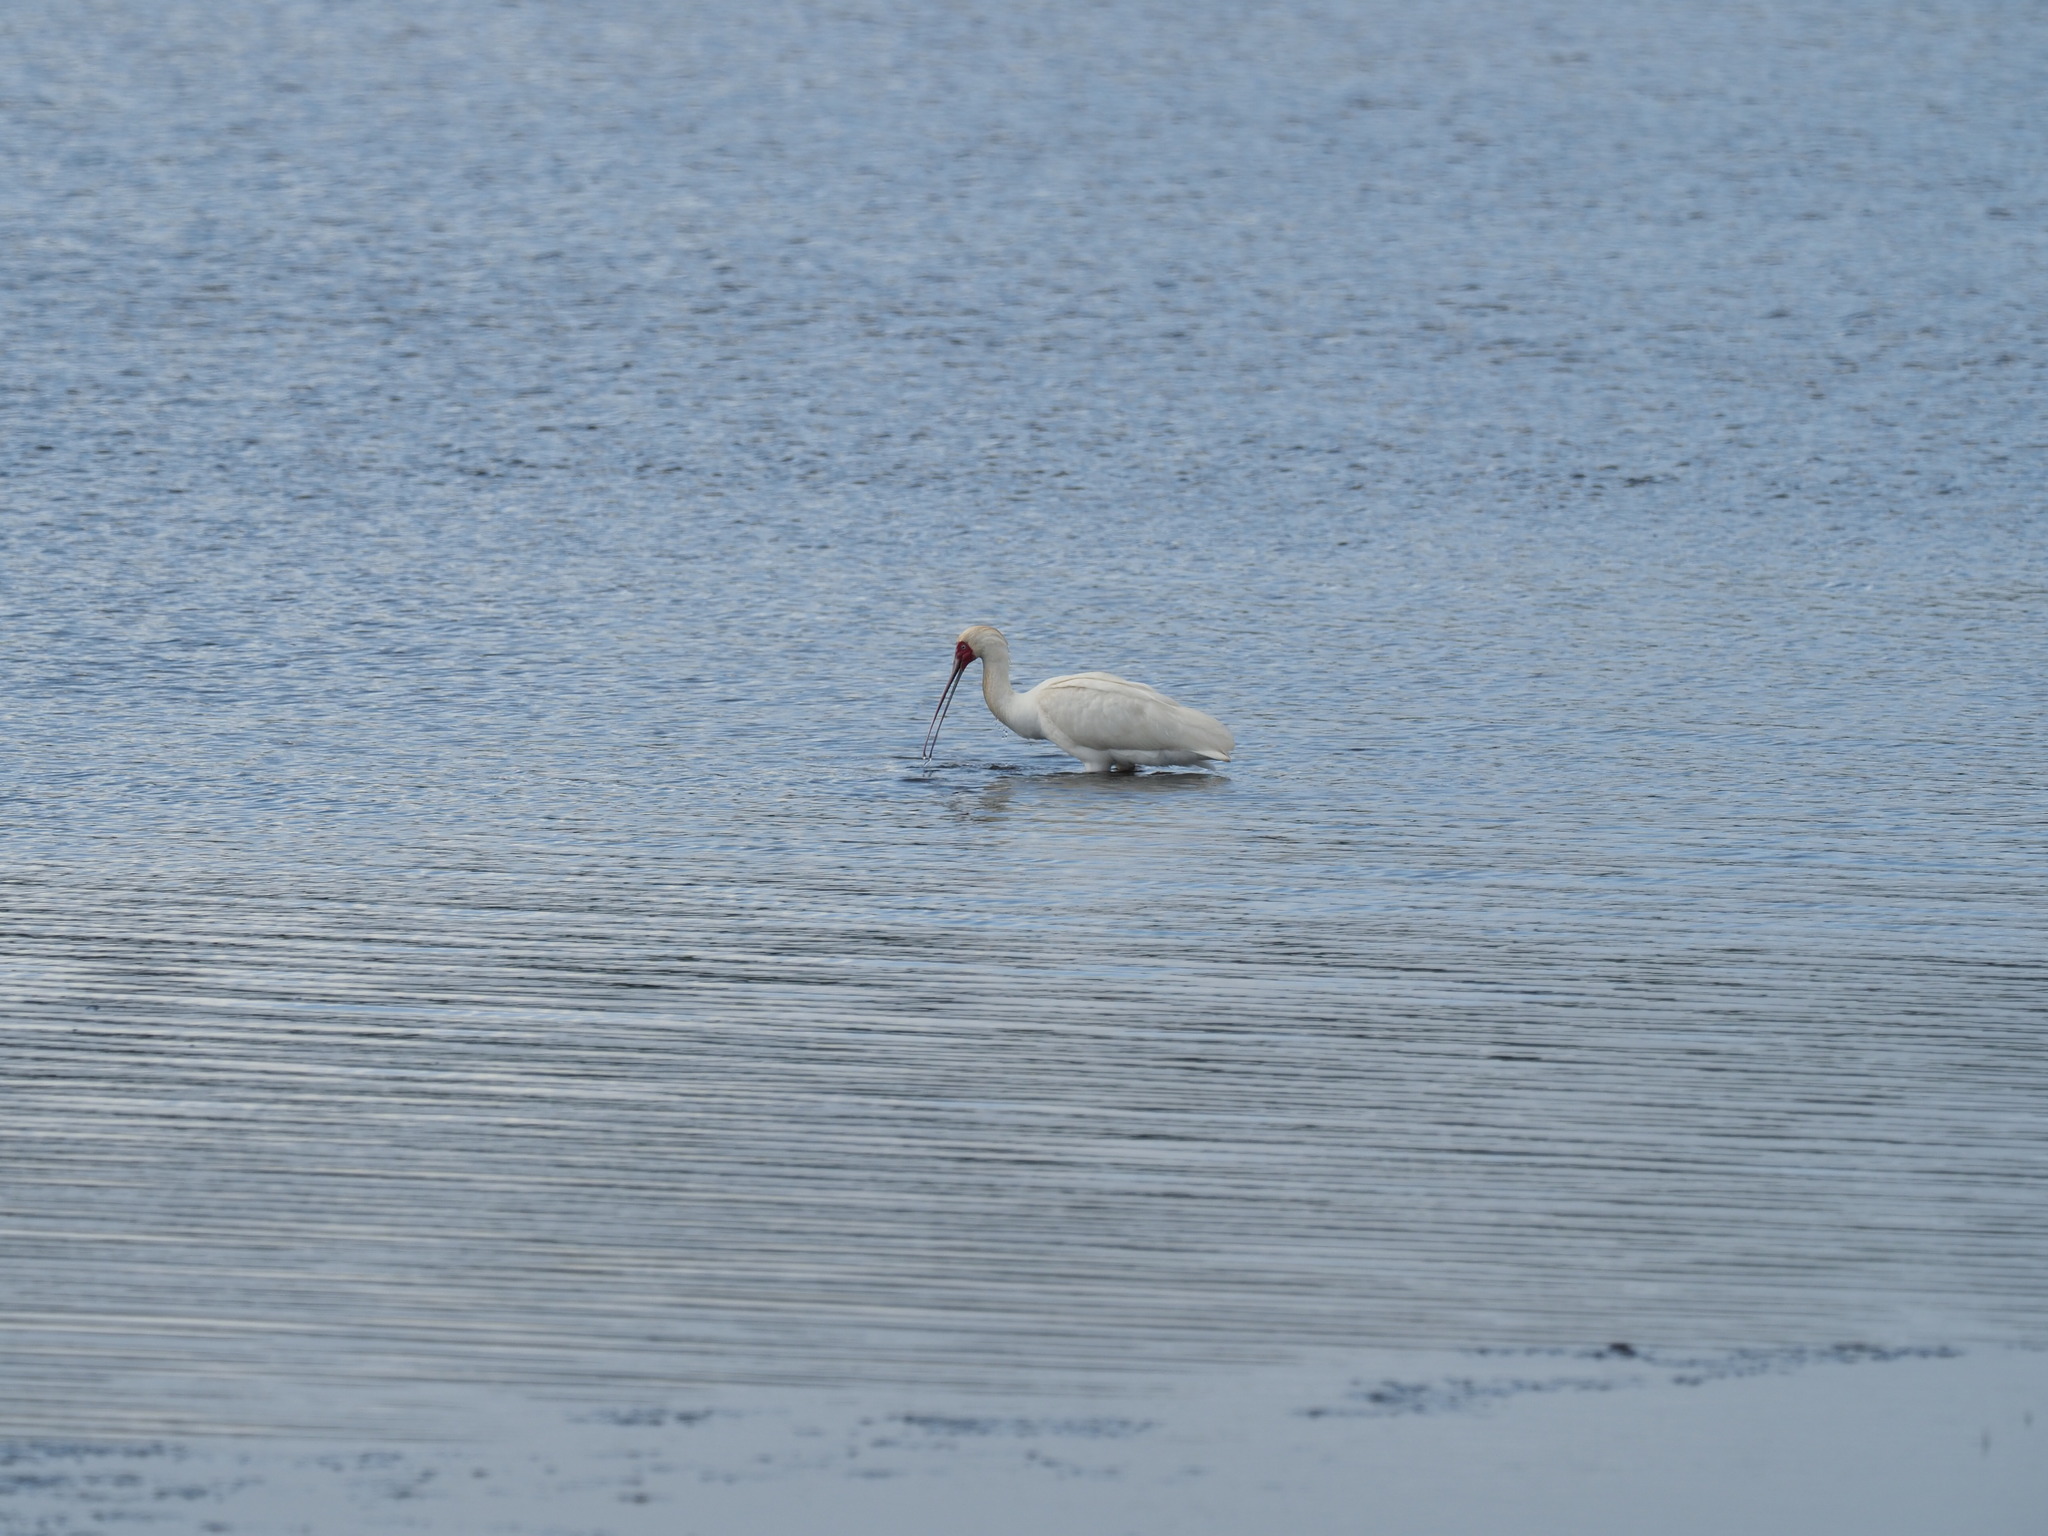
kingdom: Animalia
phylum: Chordata
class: Aves
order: Pelecaniformes
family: Threskiornithidae
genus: Platalea
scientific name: Platalea alba
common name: African spoonbill
